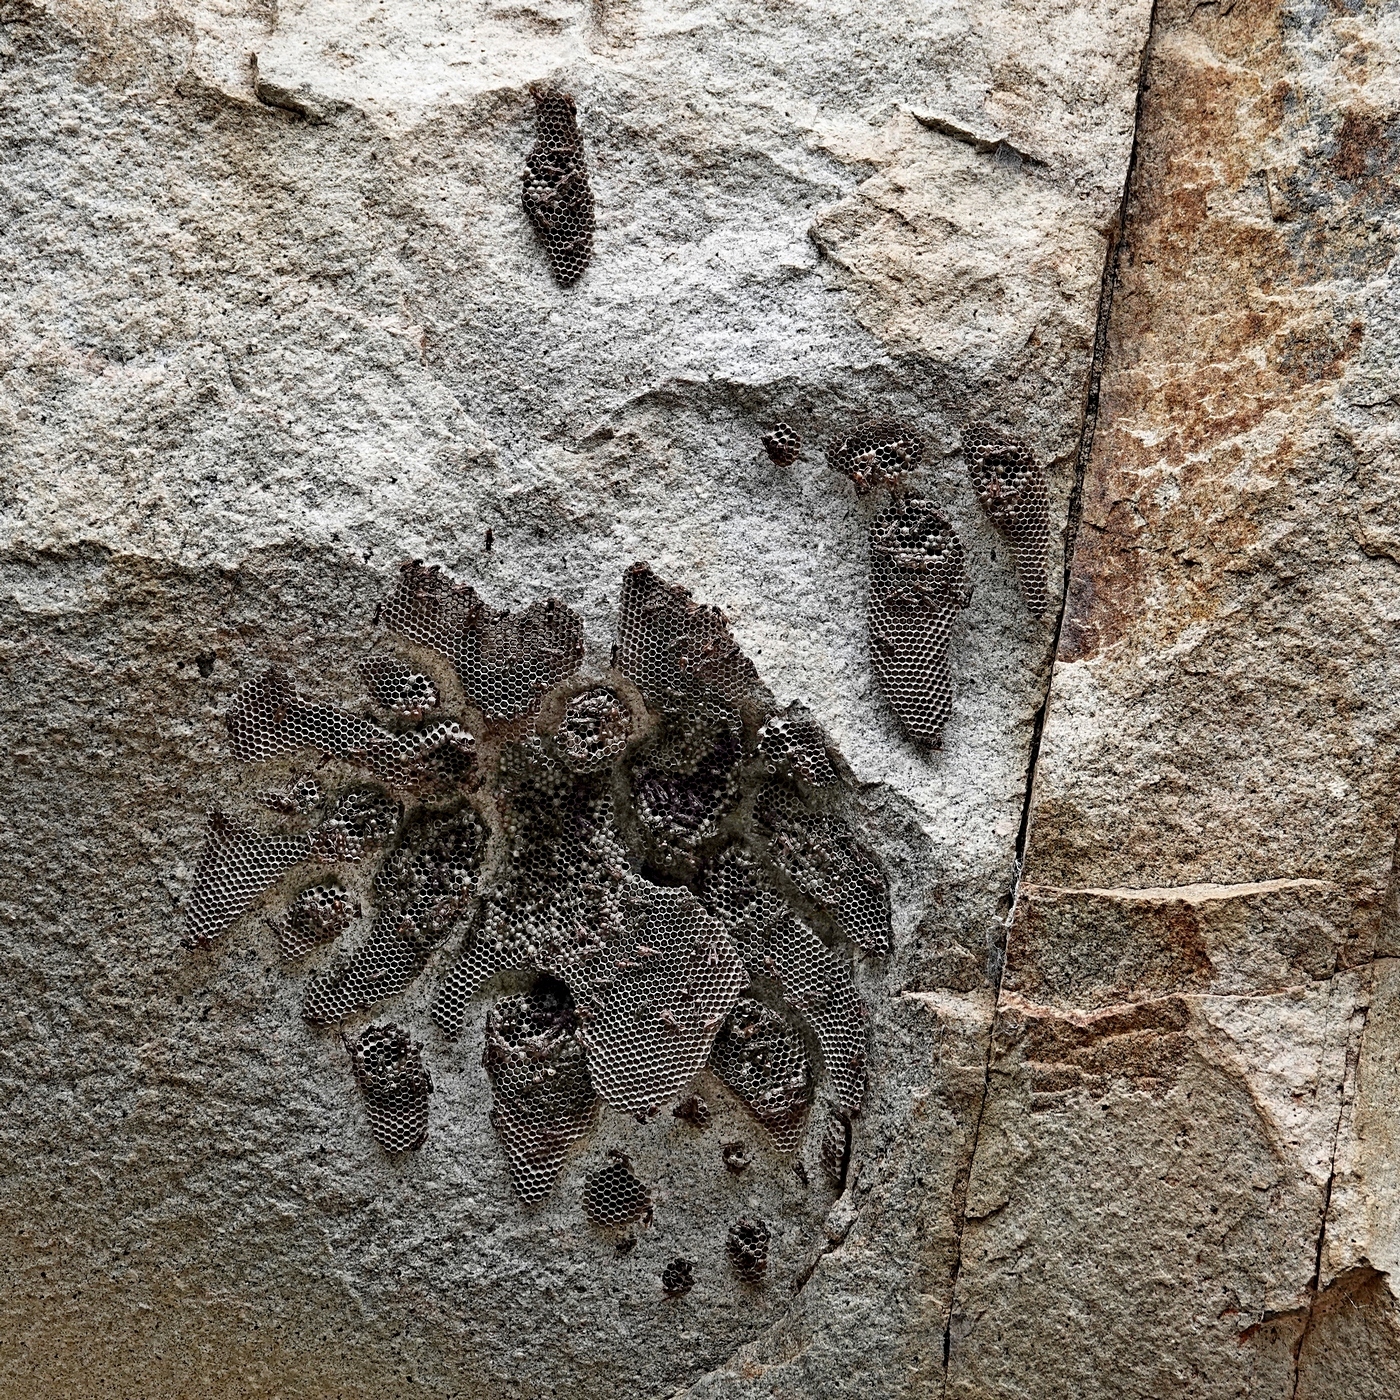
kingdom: Animalia
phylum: Arthropoda
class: Insecta
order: Hymenoptera
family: Vespidae
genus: Ropalidia
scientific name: Ropalidia plebeiana
